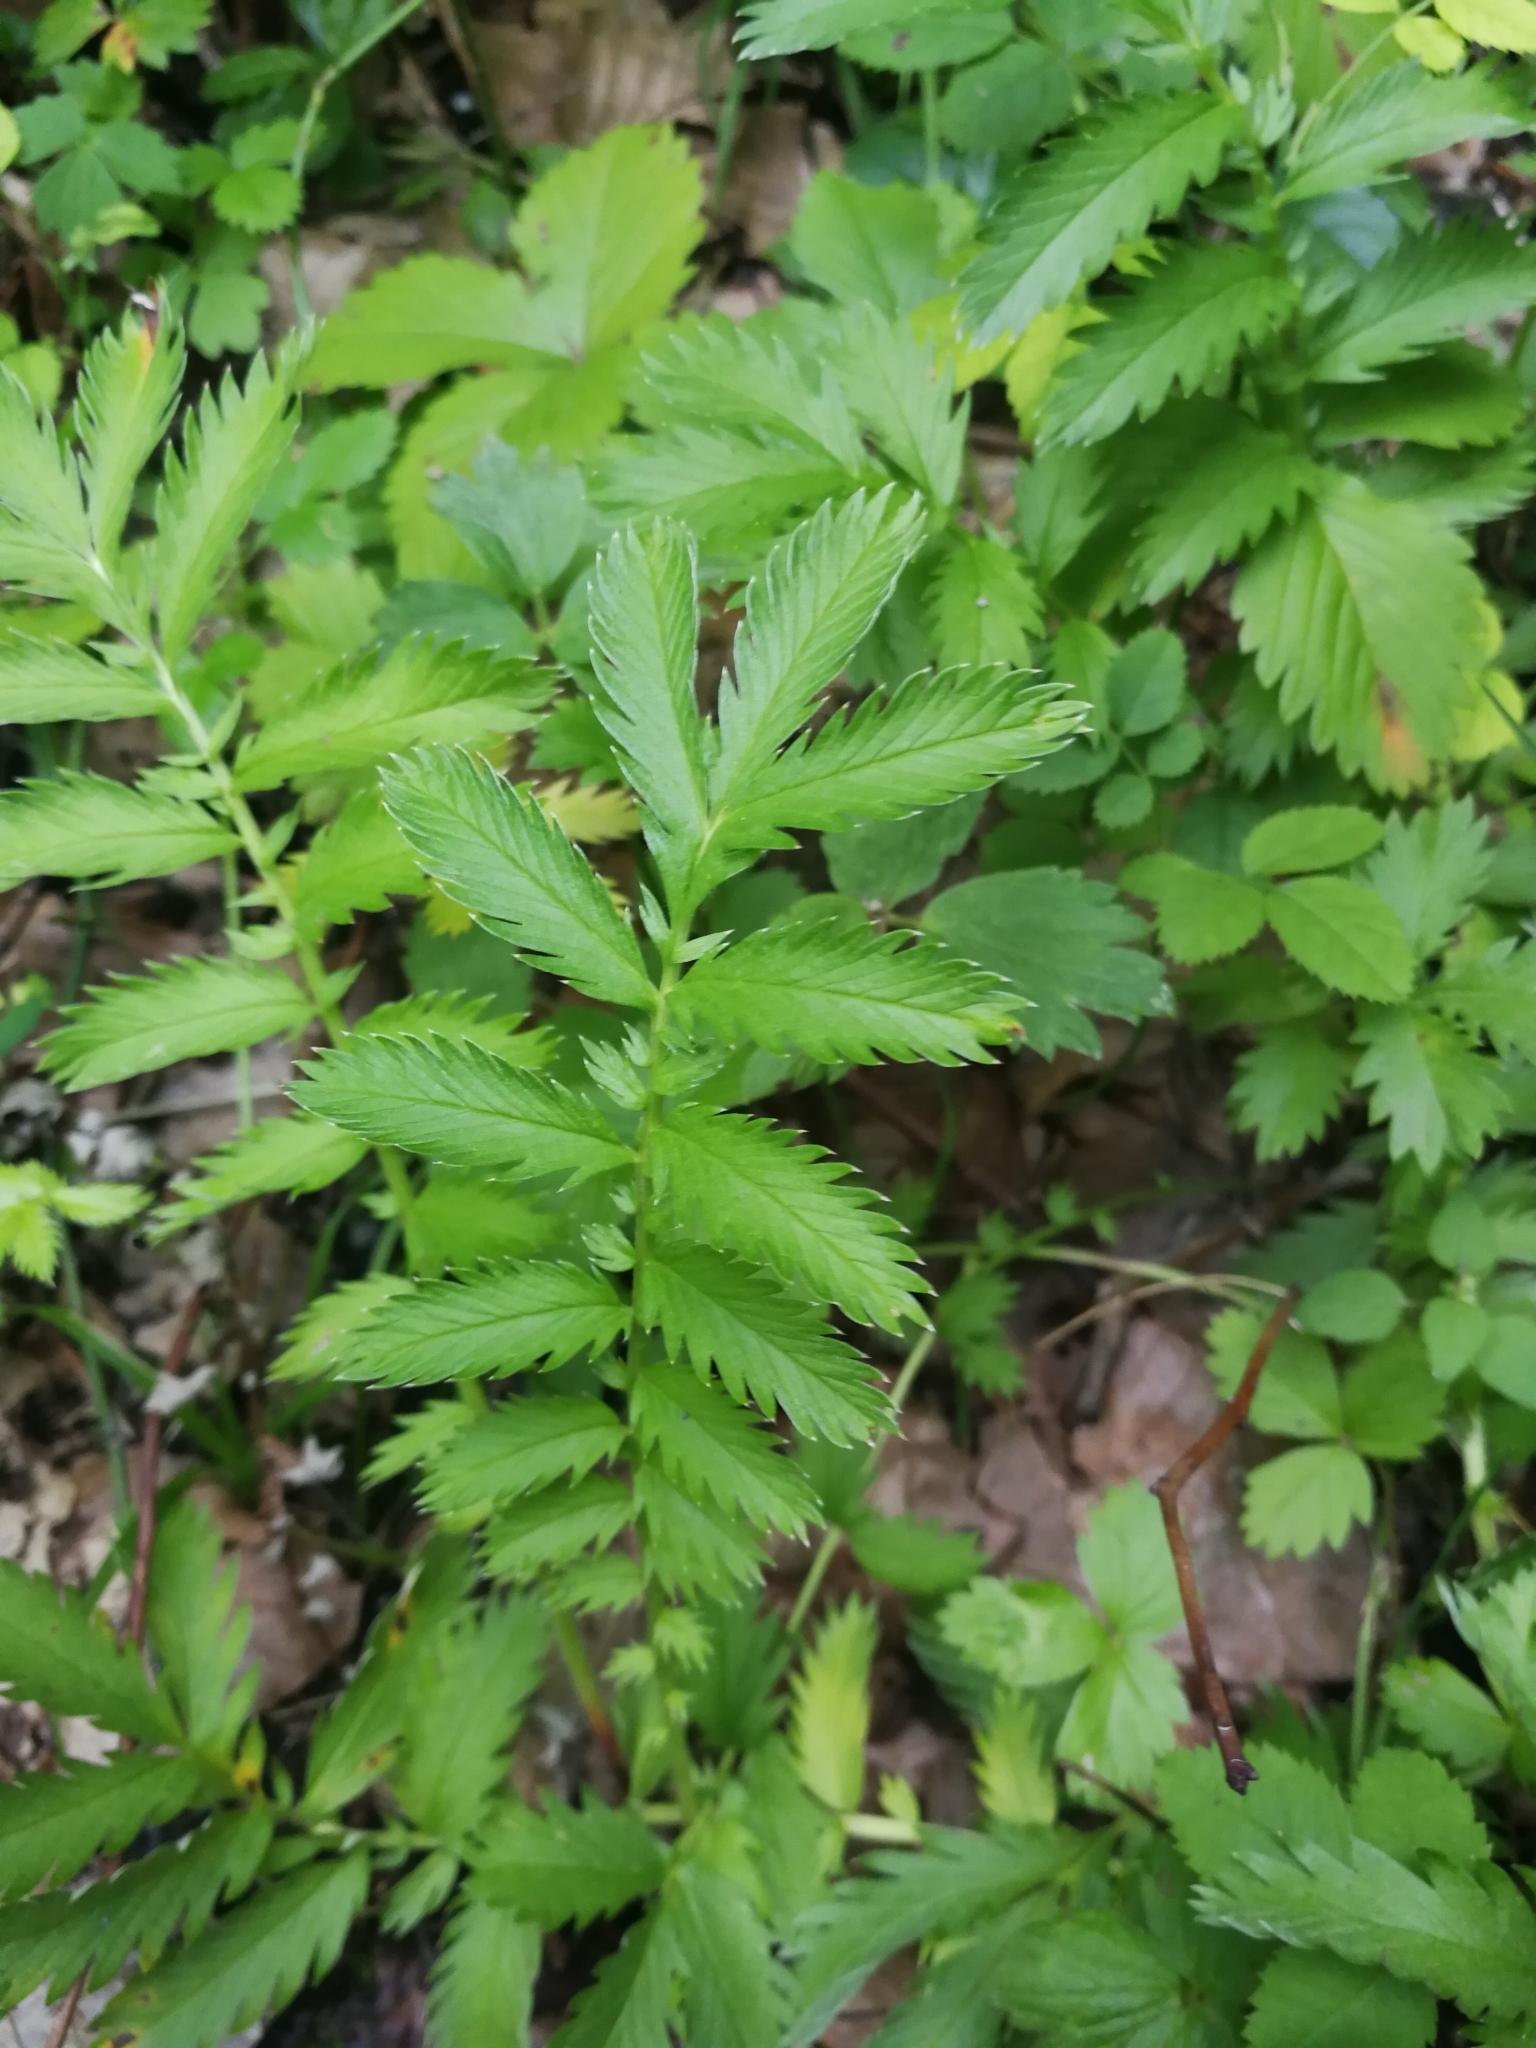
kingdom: Plantae
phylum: Tracheophyta
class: Magnoliopsida
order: Rosales
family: Rosaceae
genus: Argentina
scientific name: Argentina anserina
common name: Common silverweed
